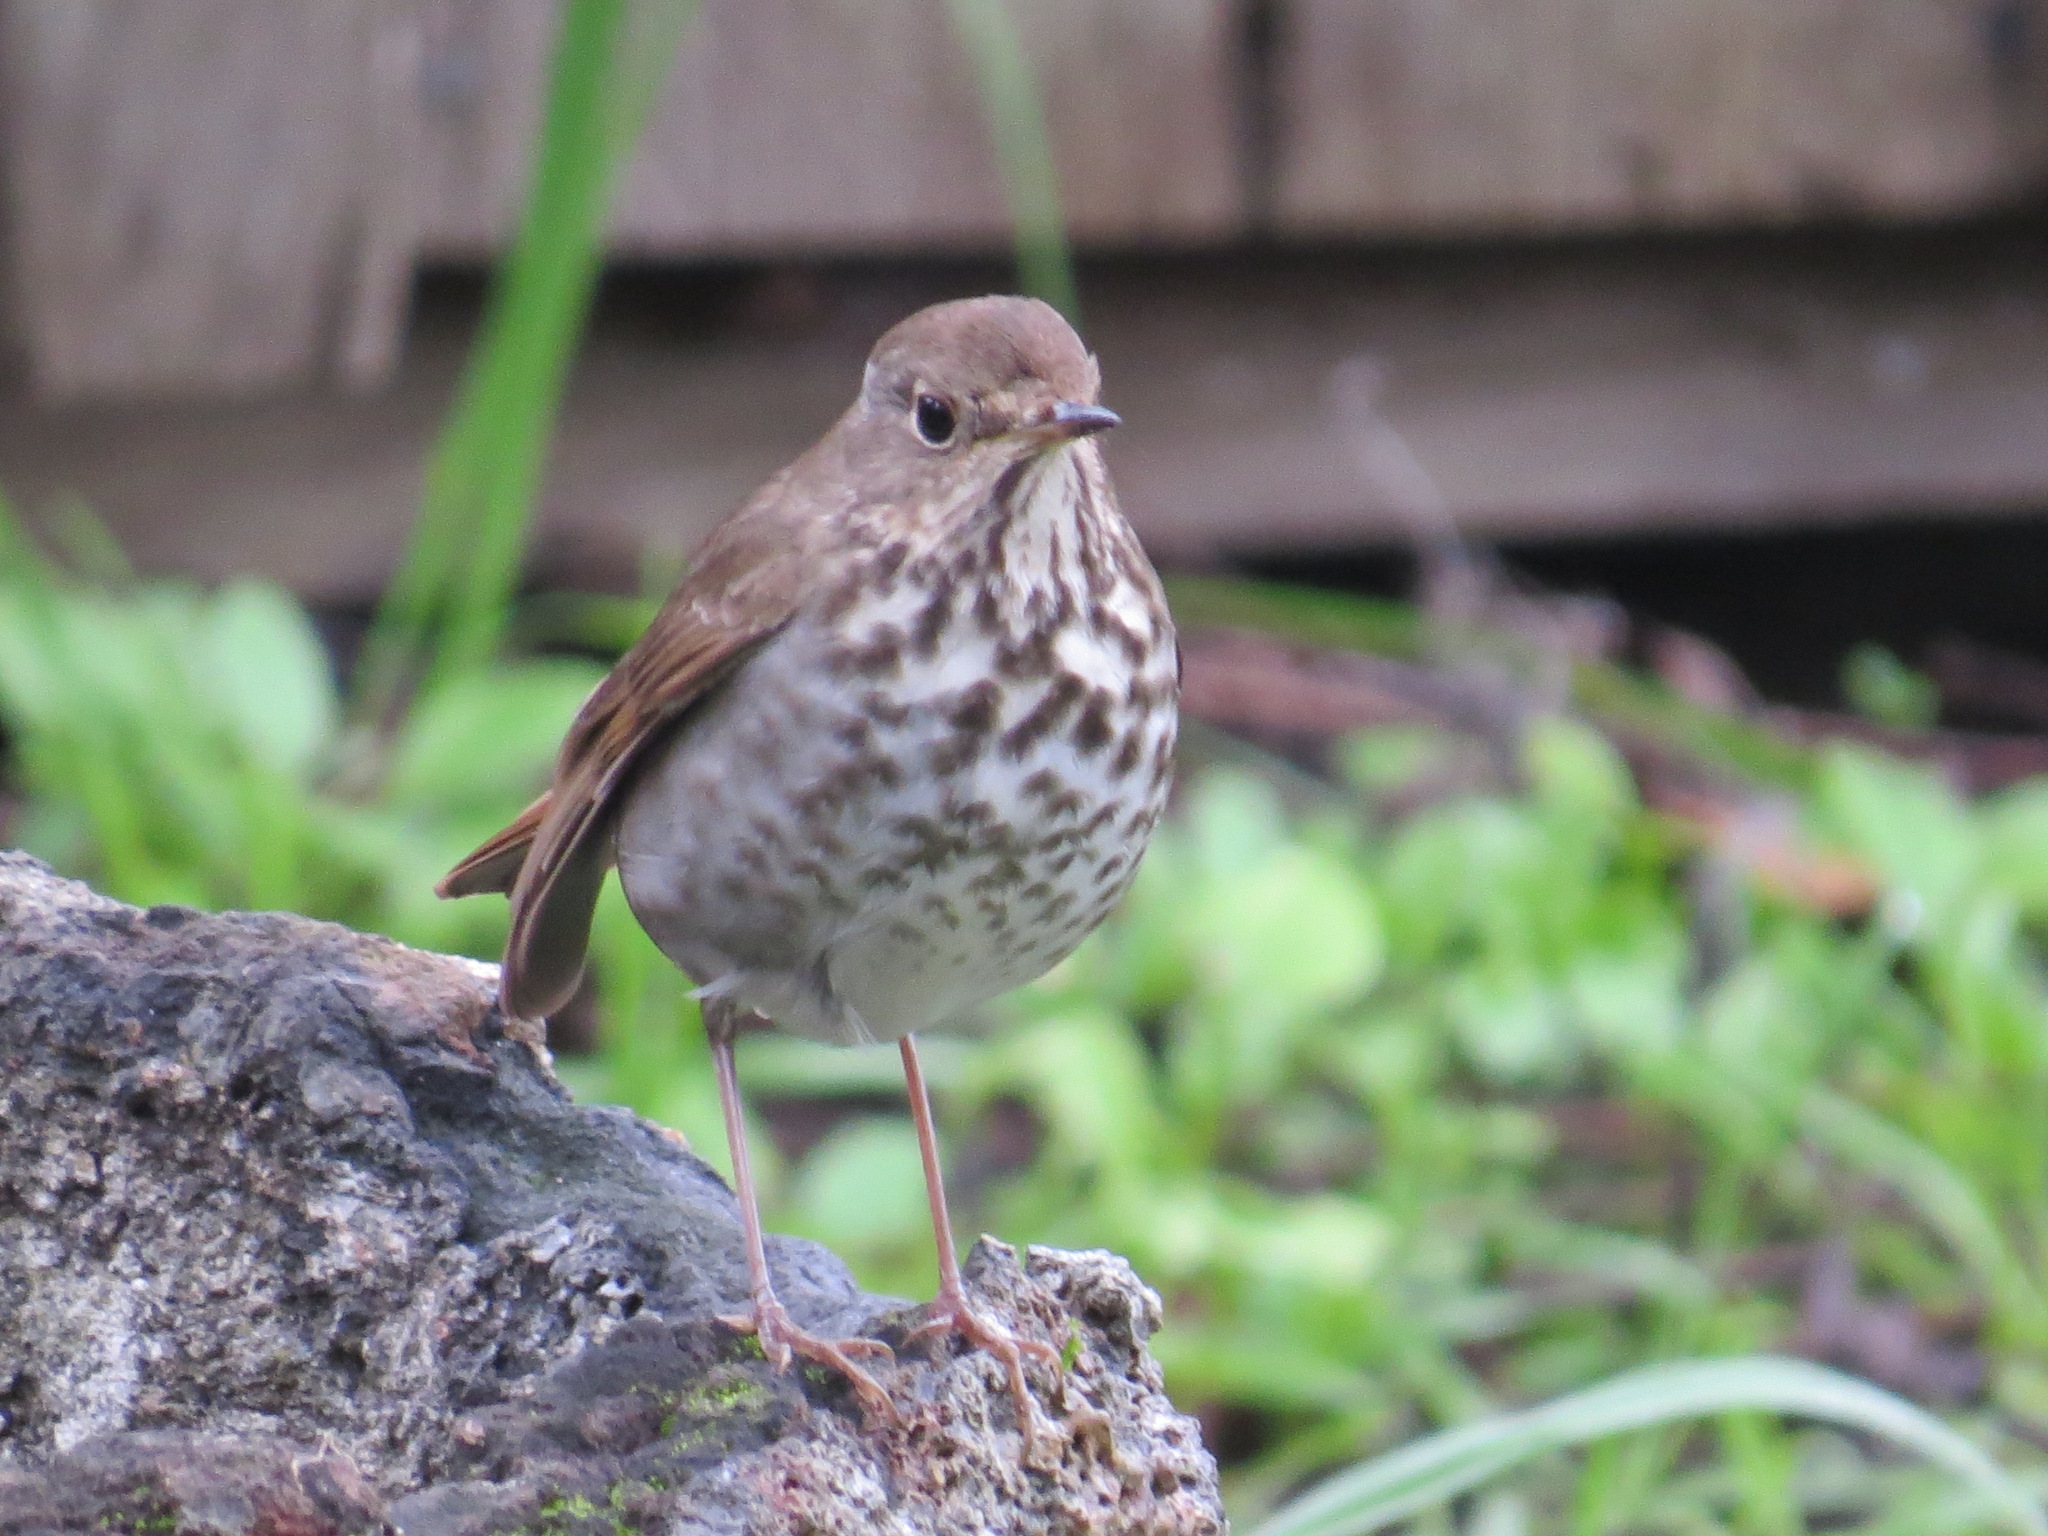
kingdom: Animalia
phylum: Chordata
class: Aves
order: Passeriformes
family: Turdidae
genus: Catharus
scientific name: Catharus guttatus
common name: Hermit thrush
